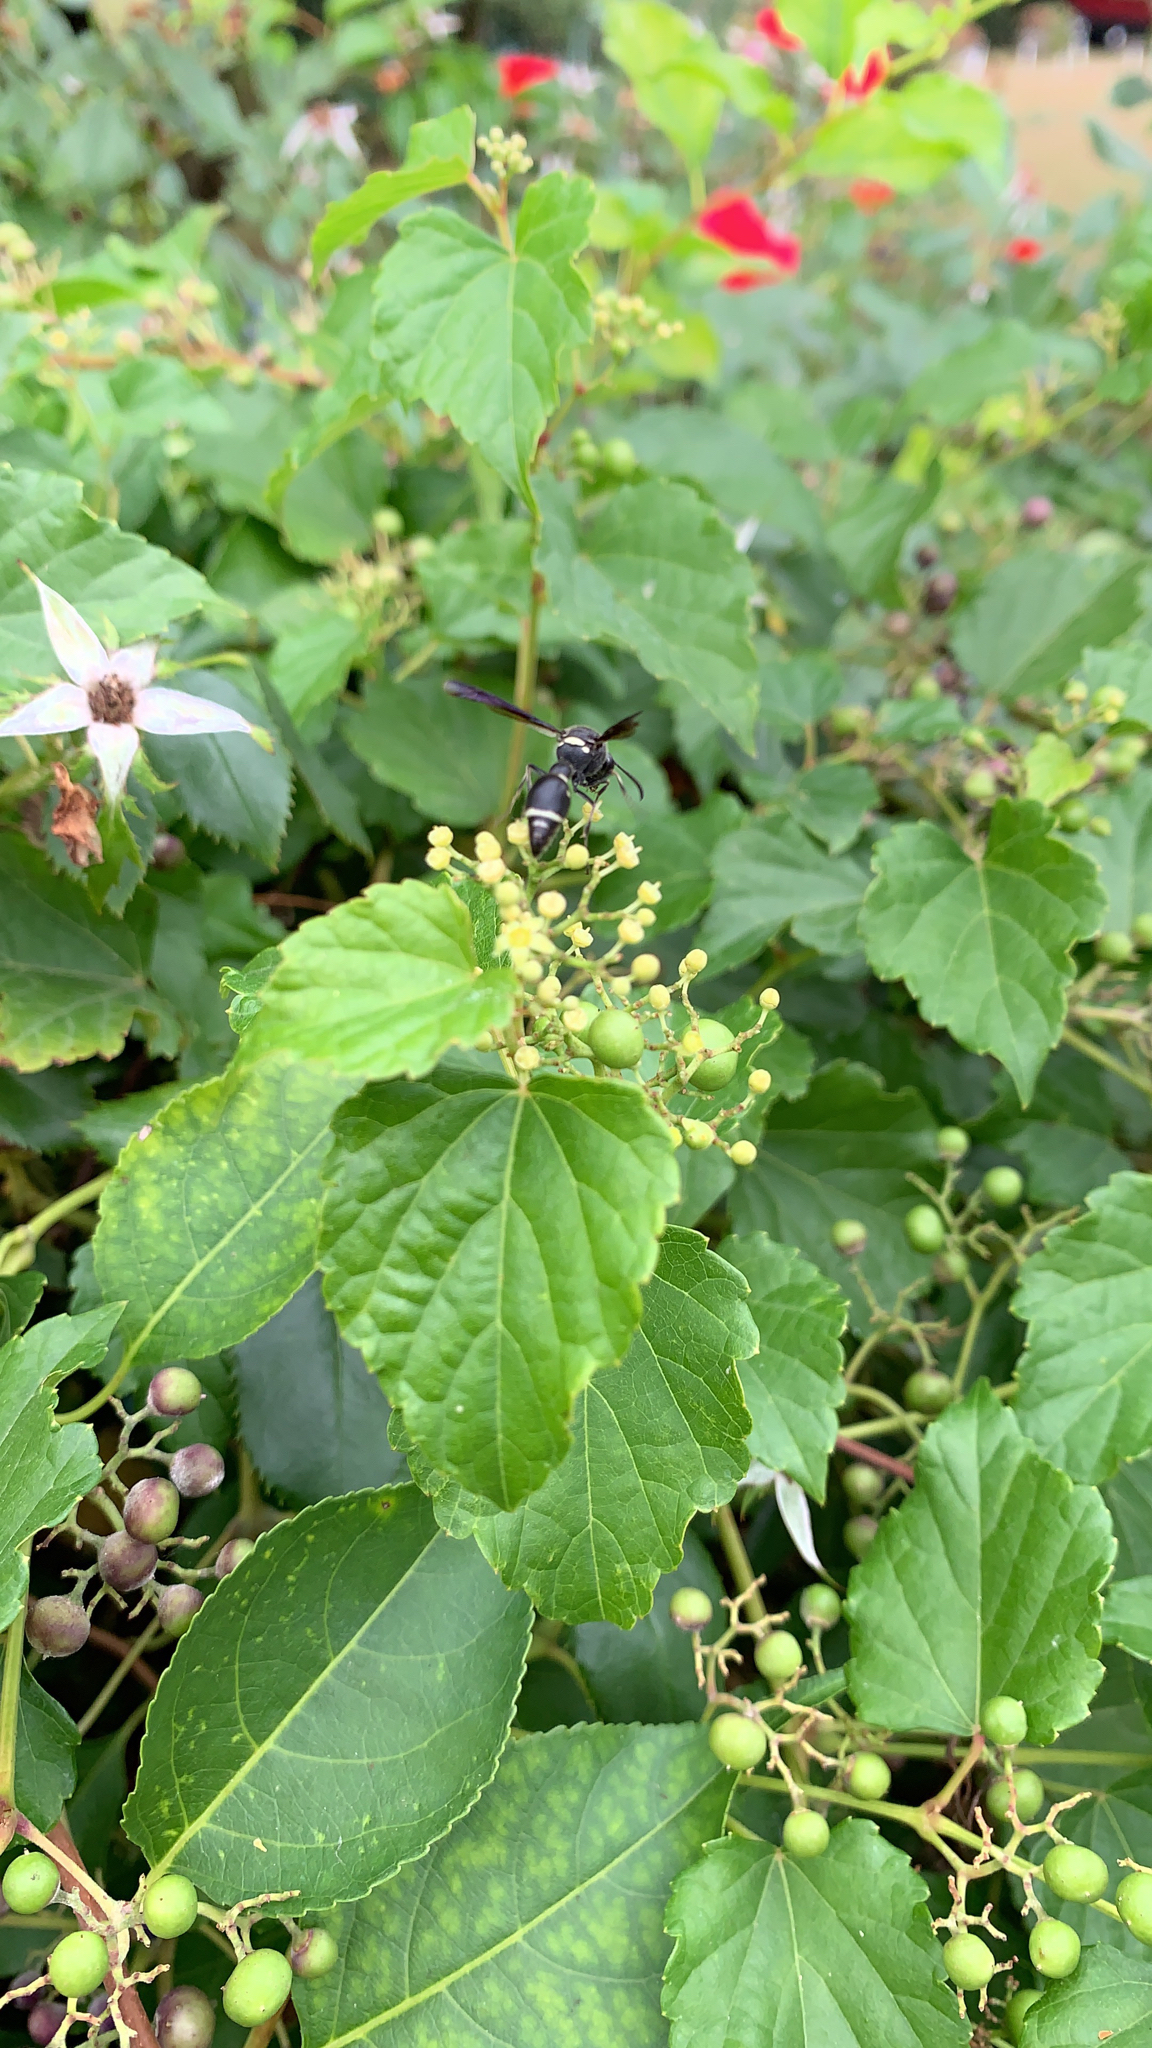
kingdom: Animalia
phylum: Arthropoda
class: Insecta
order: Hymenoptera
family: Vespidae
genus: Eumenes
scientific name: Eumenes fraternus
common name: Fraternal potter wasp
